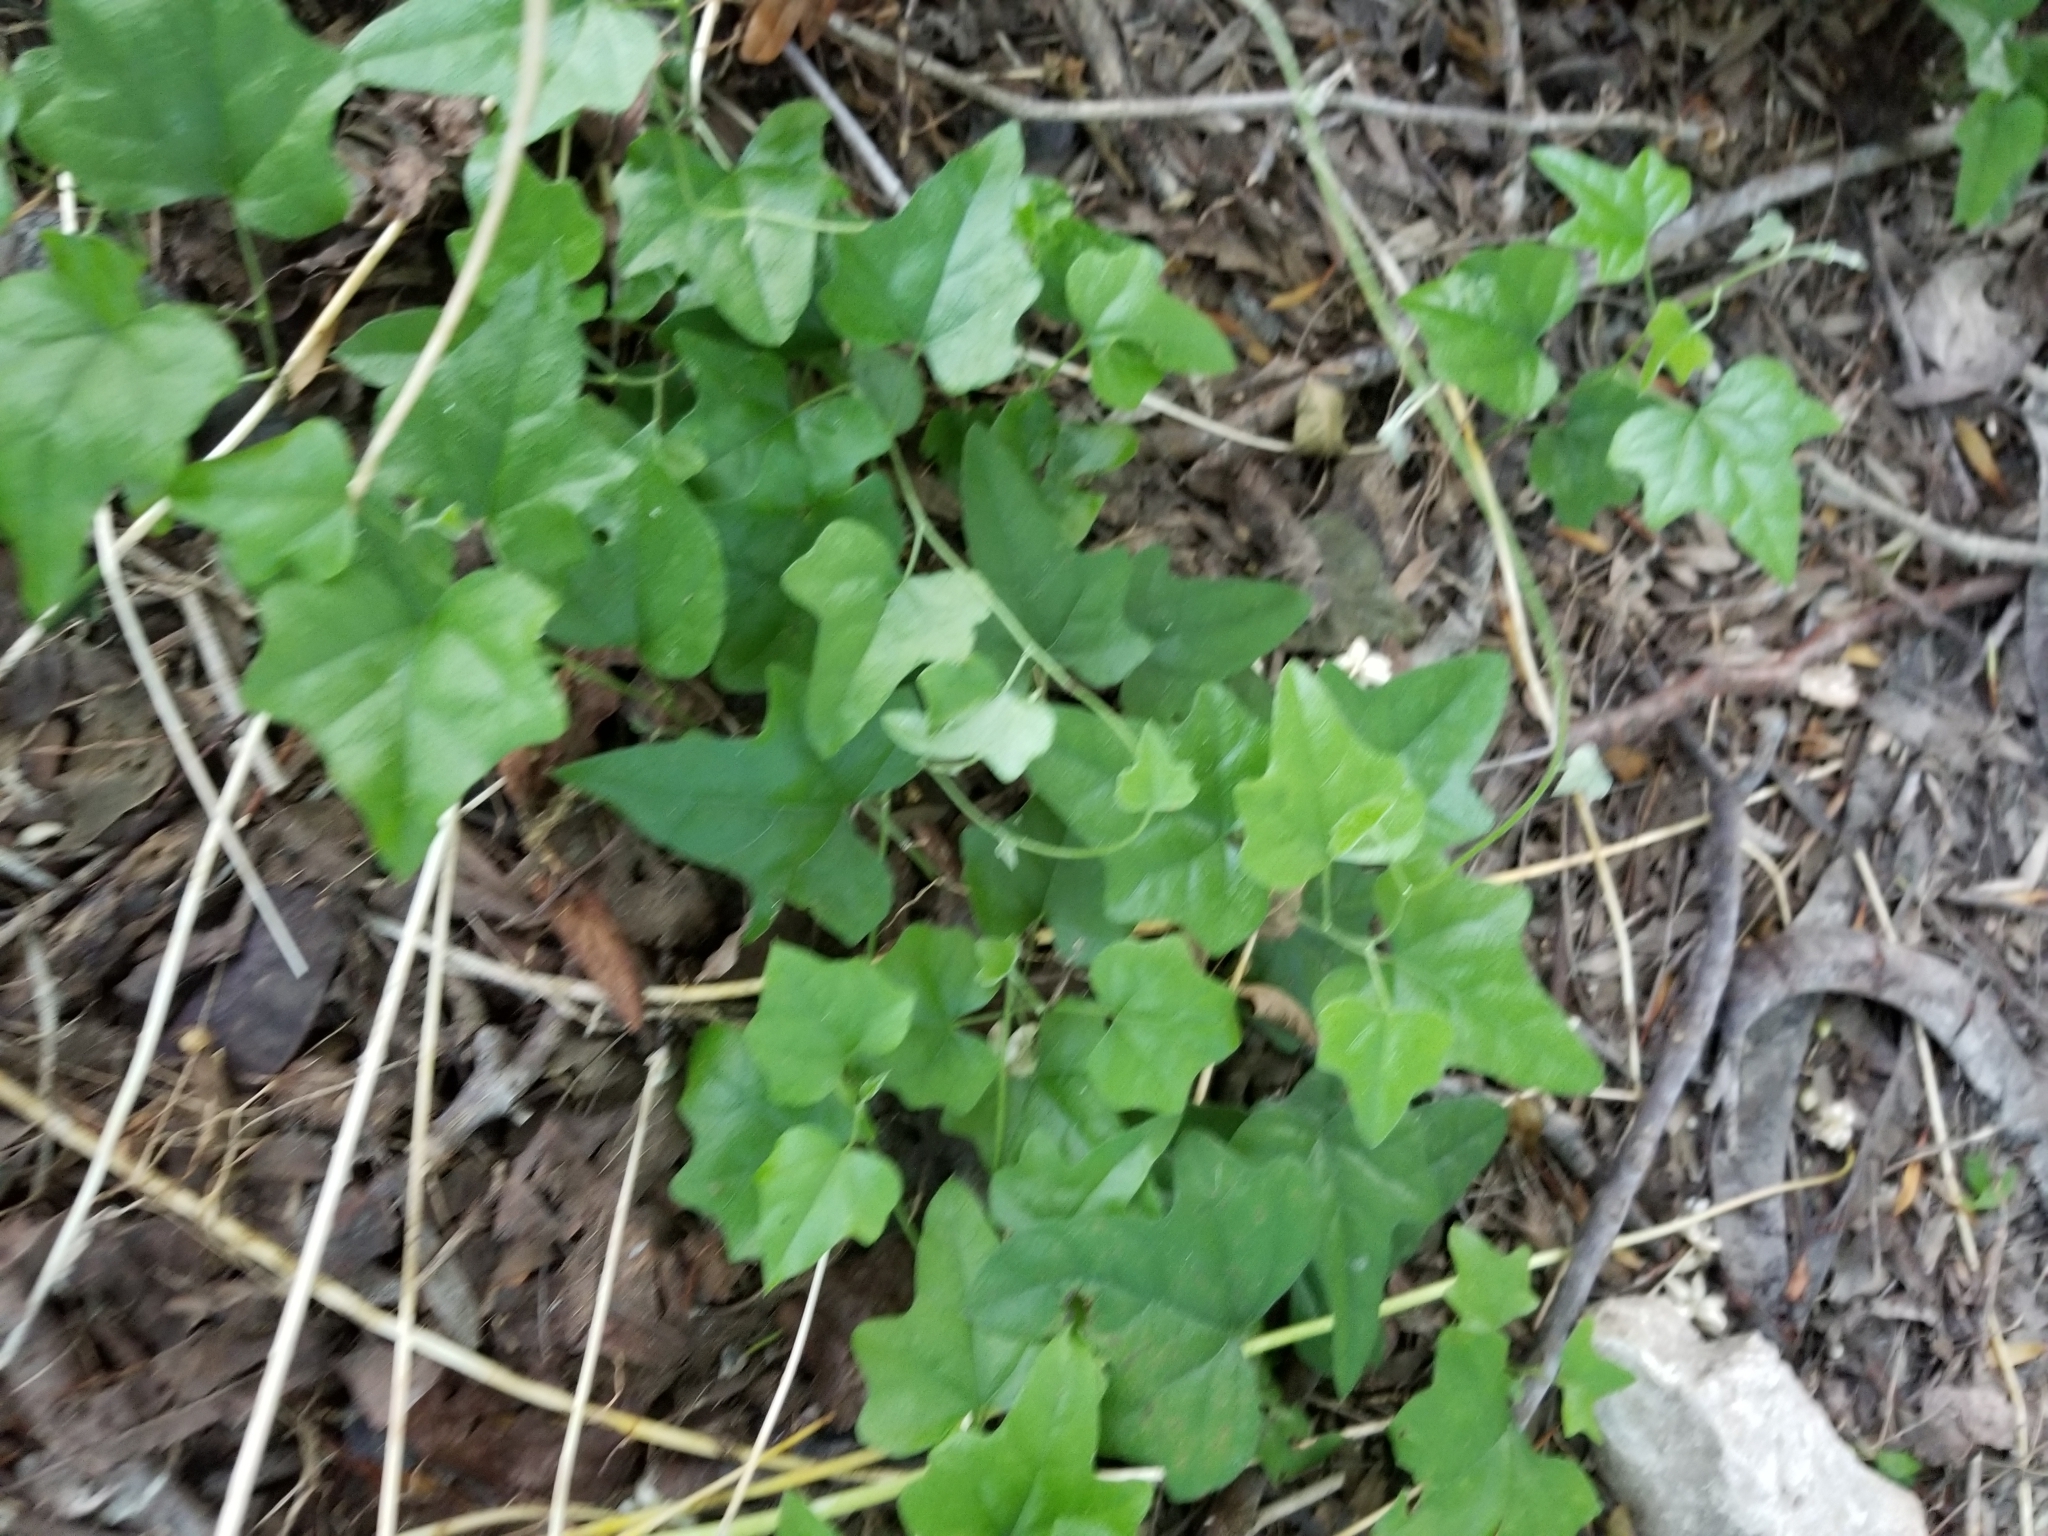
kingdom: Plantae
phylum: Tracheophyta
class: Magnoliopsida
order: Ranunculales
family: Menispermaceae
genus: Cocculus
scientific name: Cocculus carolinus
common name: Carolina moonseed
